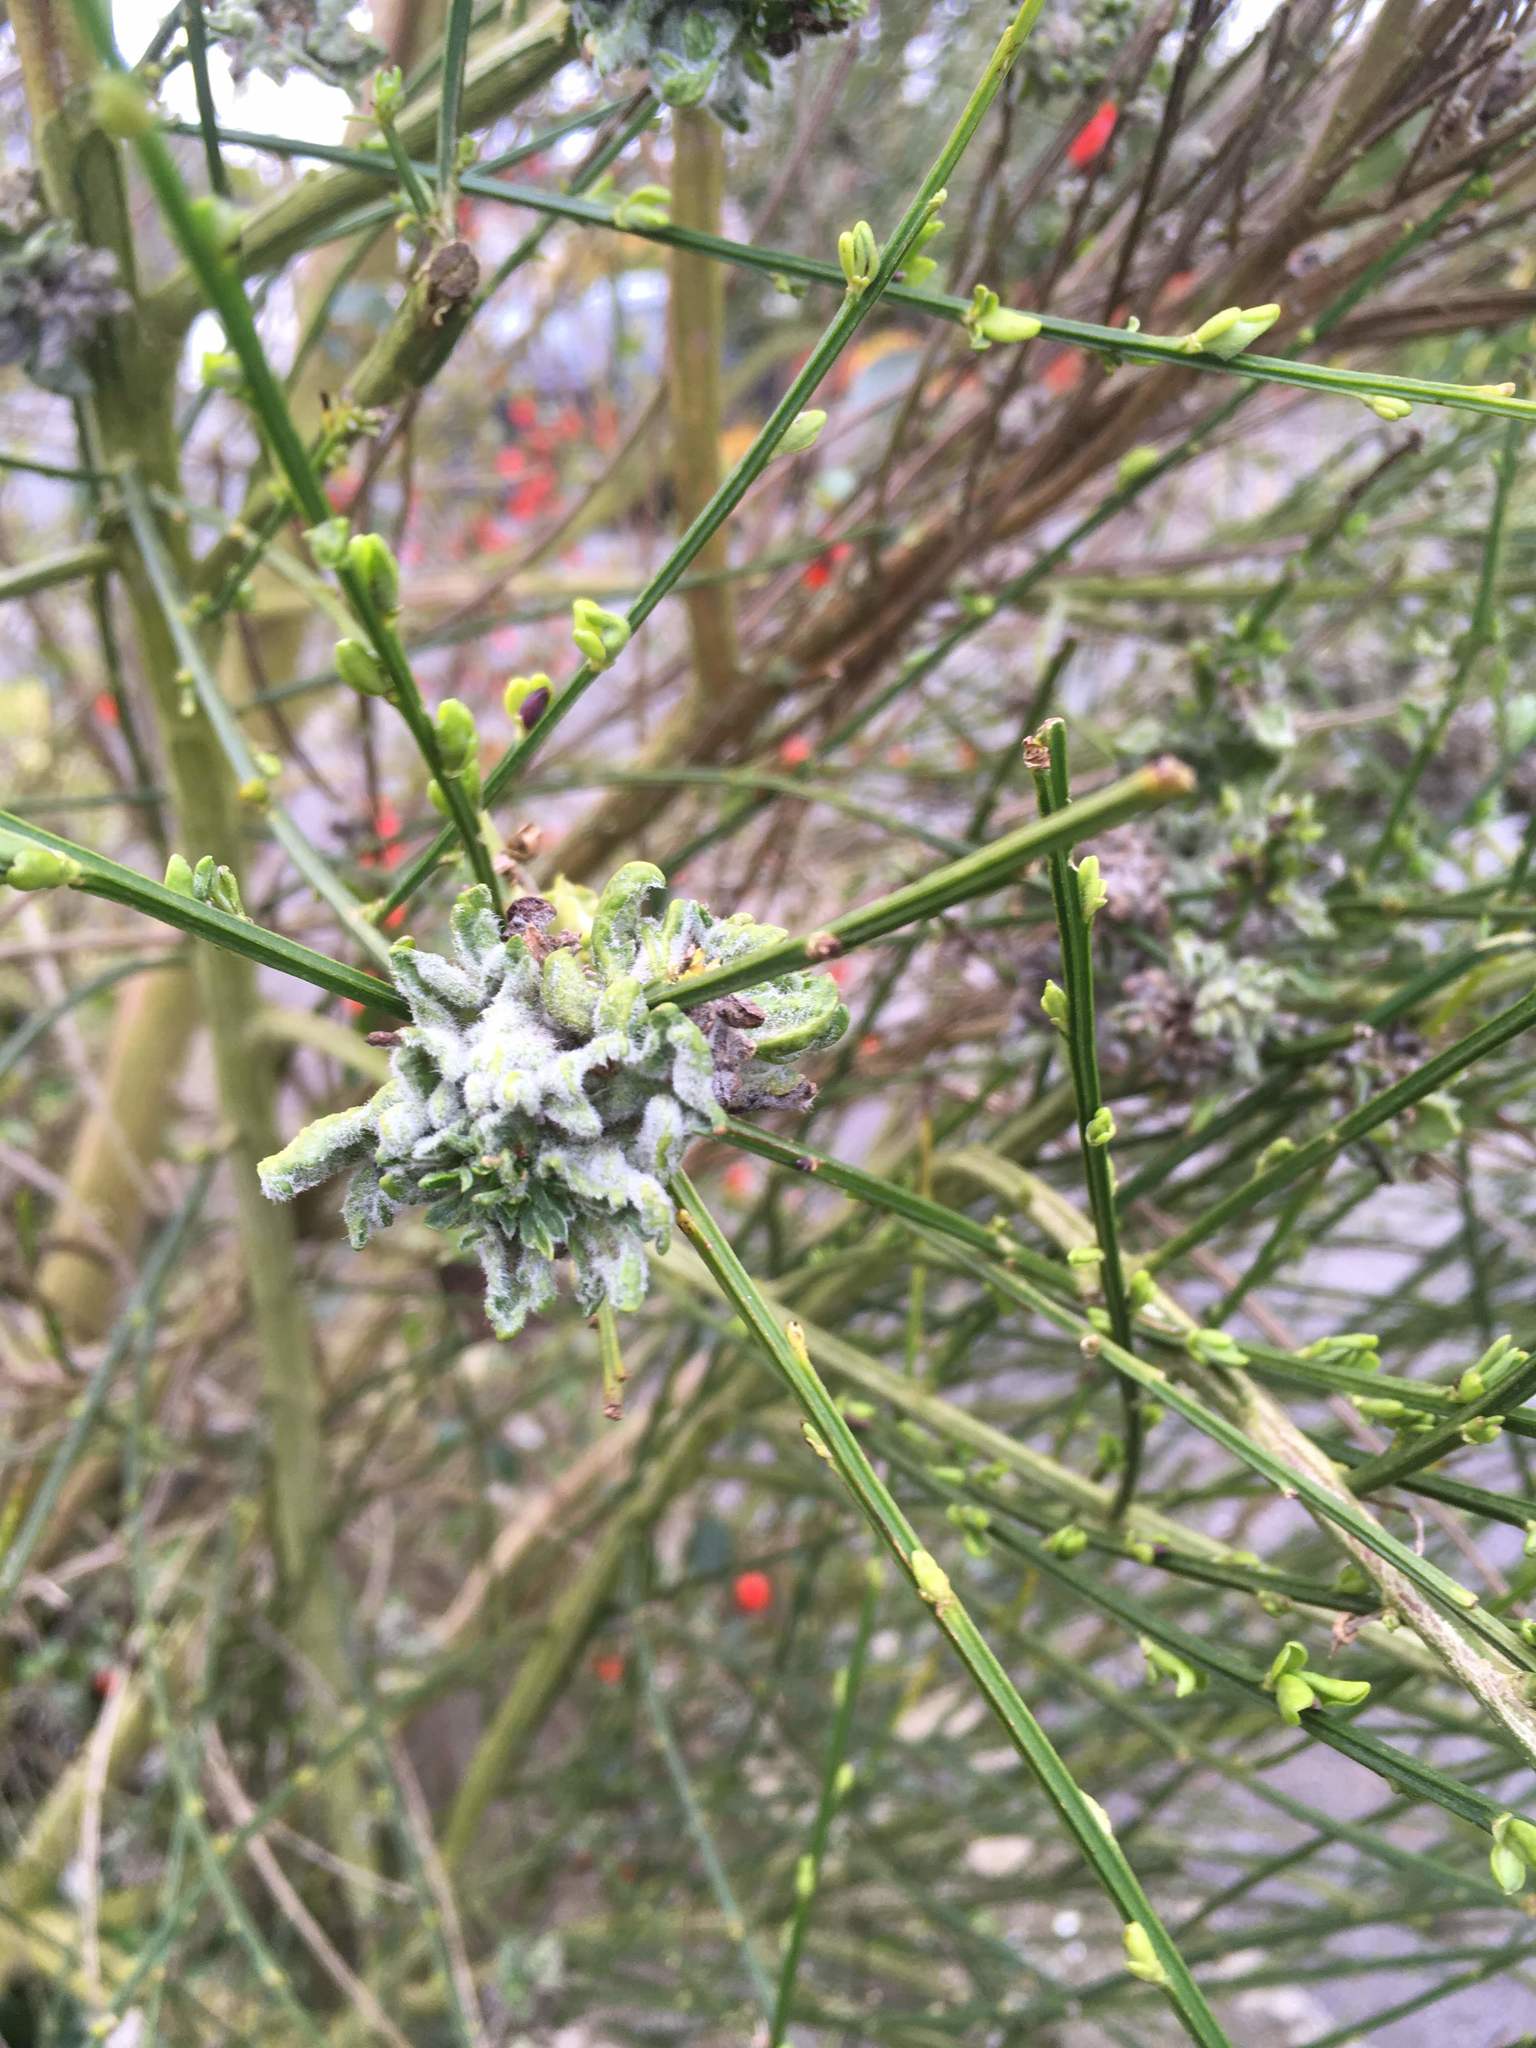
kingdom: Animalia
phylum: Arthropoda
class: Arachnida
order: Trombidiformes
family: Eriophyidae
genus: Aceria
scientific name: Aceria genistae
